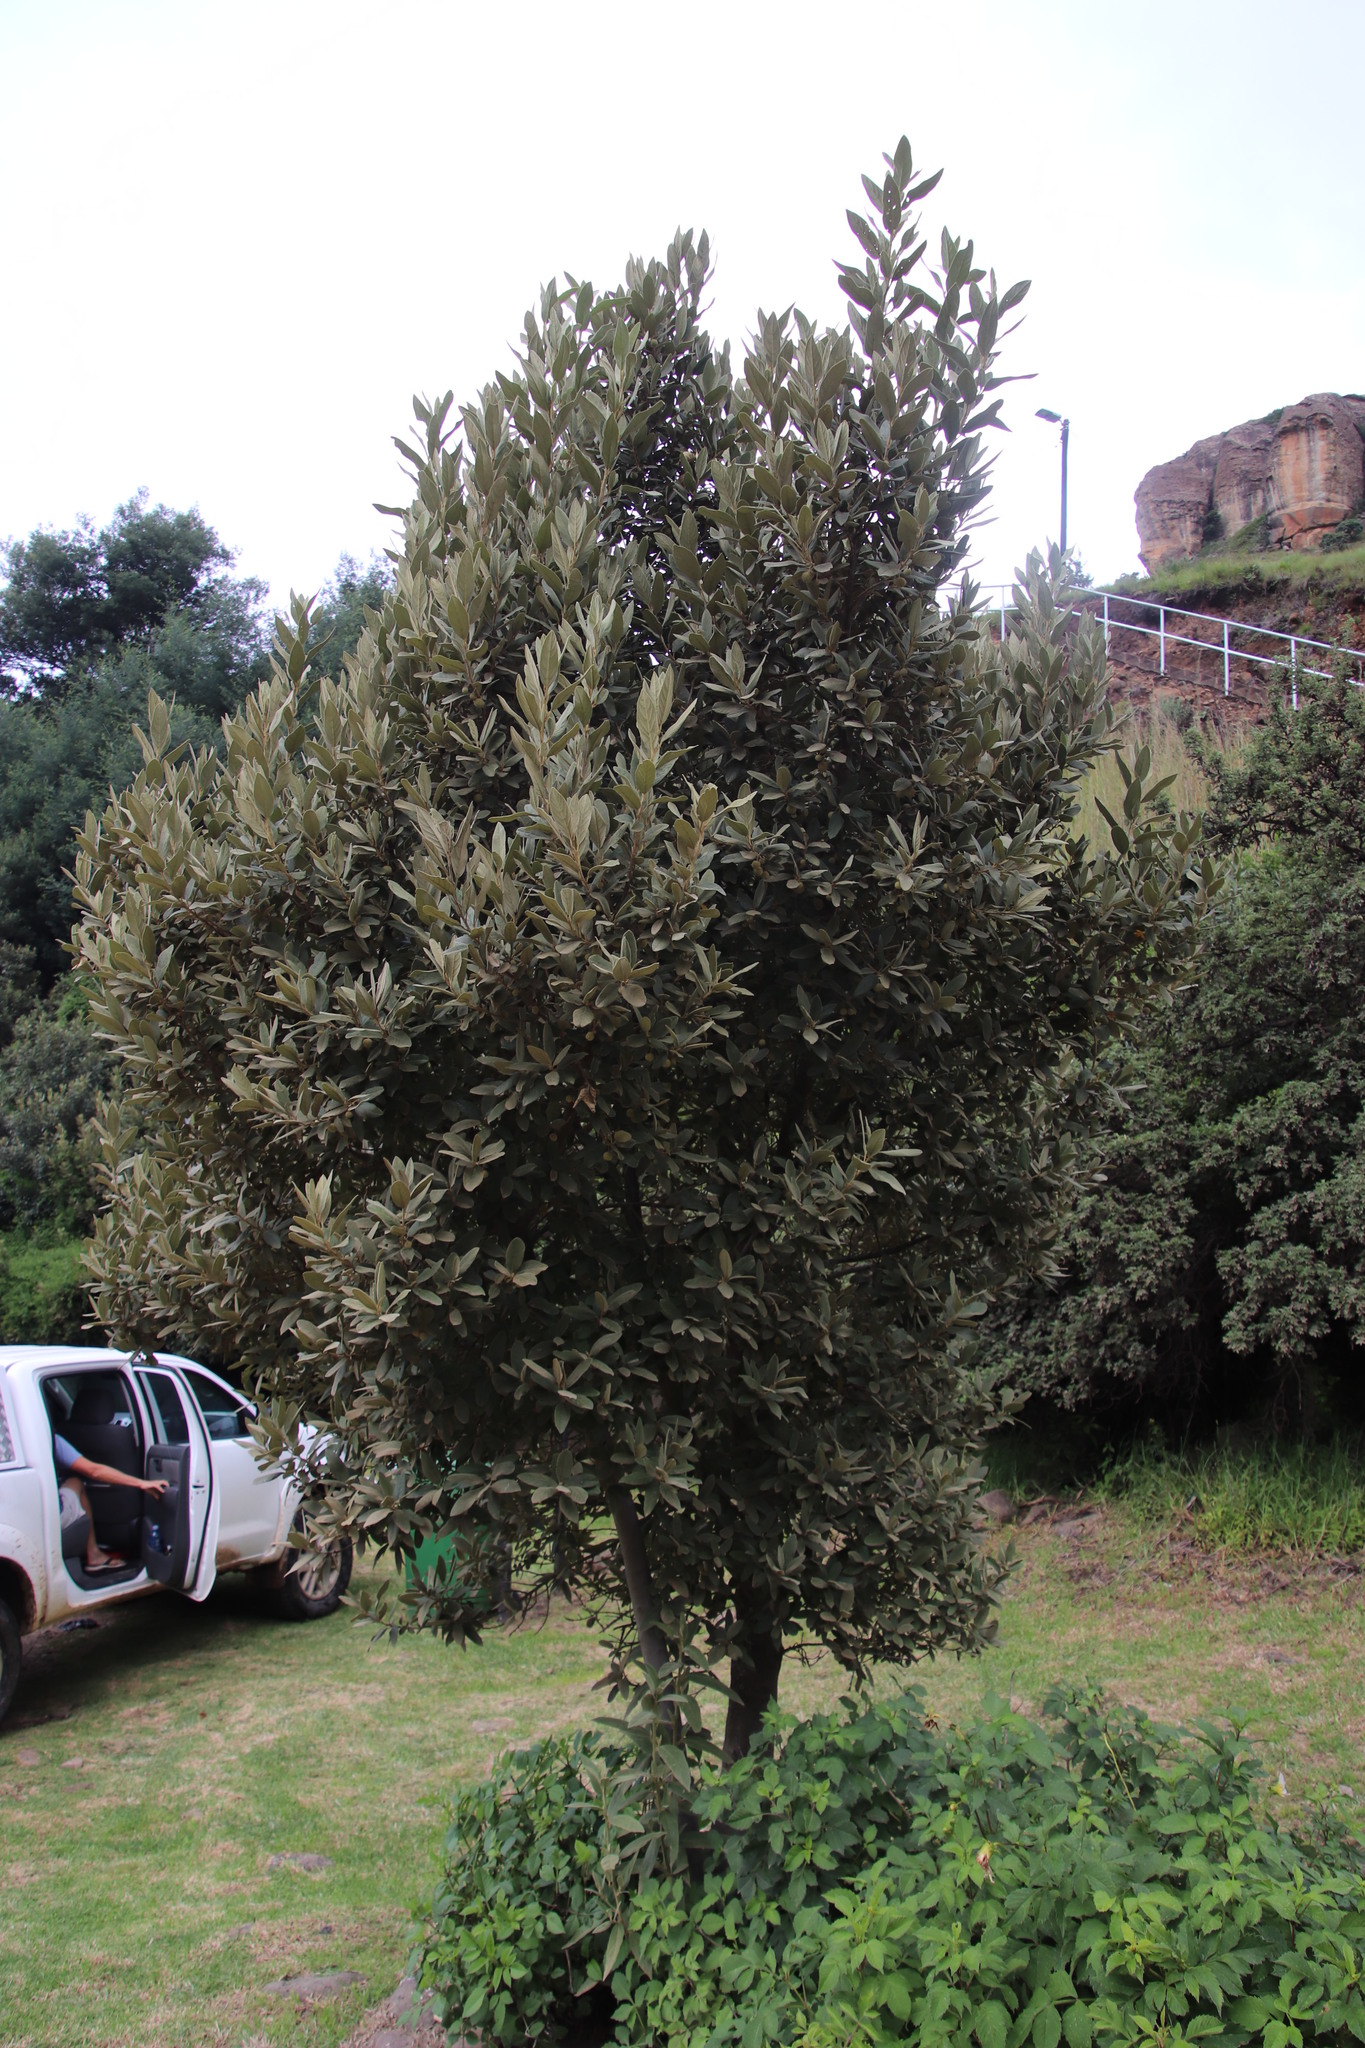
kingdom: Plantae
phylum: Tracheophyta
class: Magnoliopsida
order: Malpighiales
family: Achariaceae
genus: Kiggelaria
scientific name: Kiggelaria africana
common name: Wild peach
